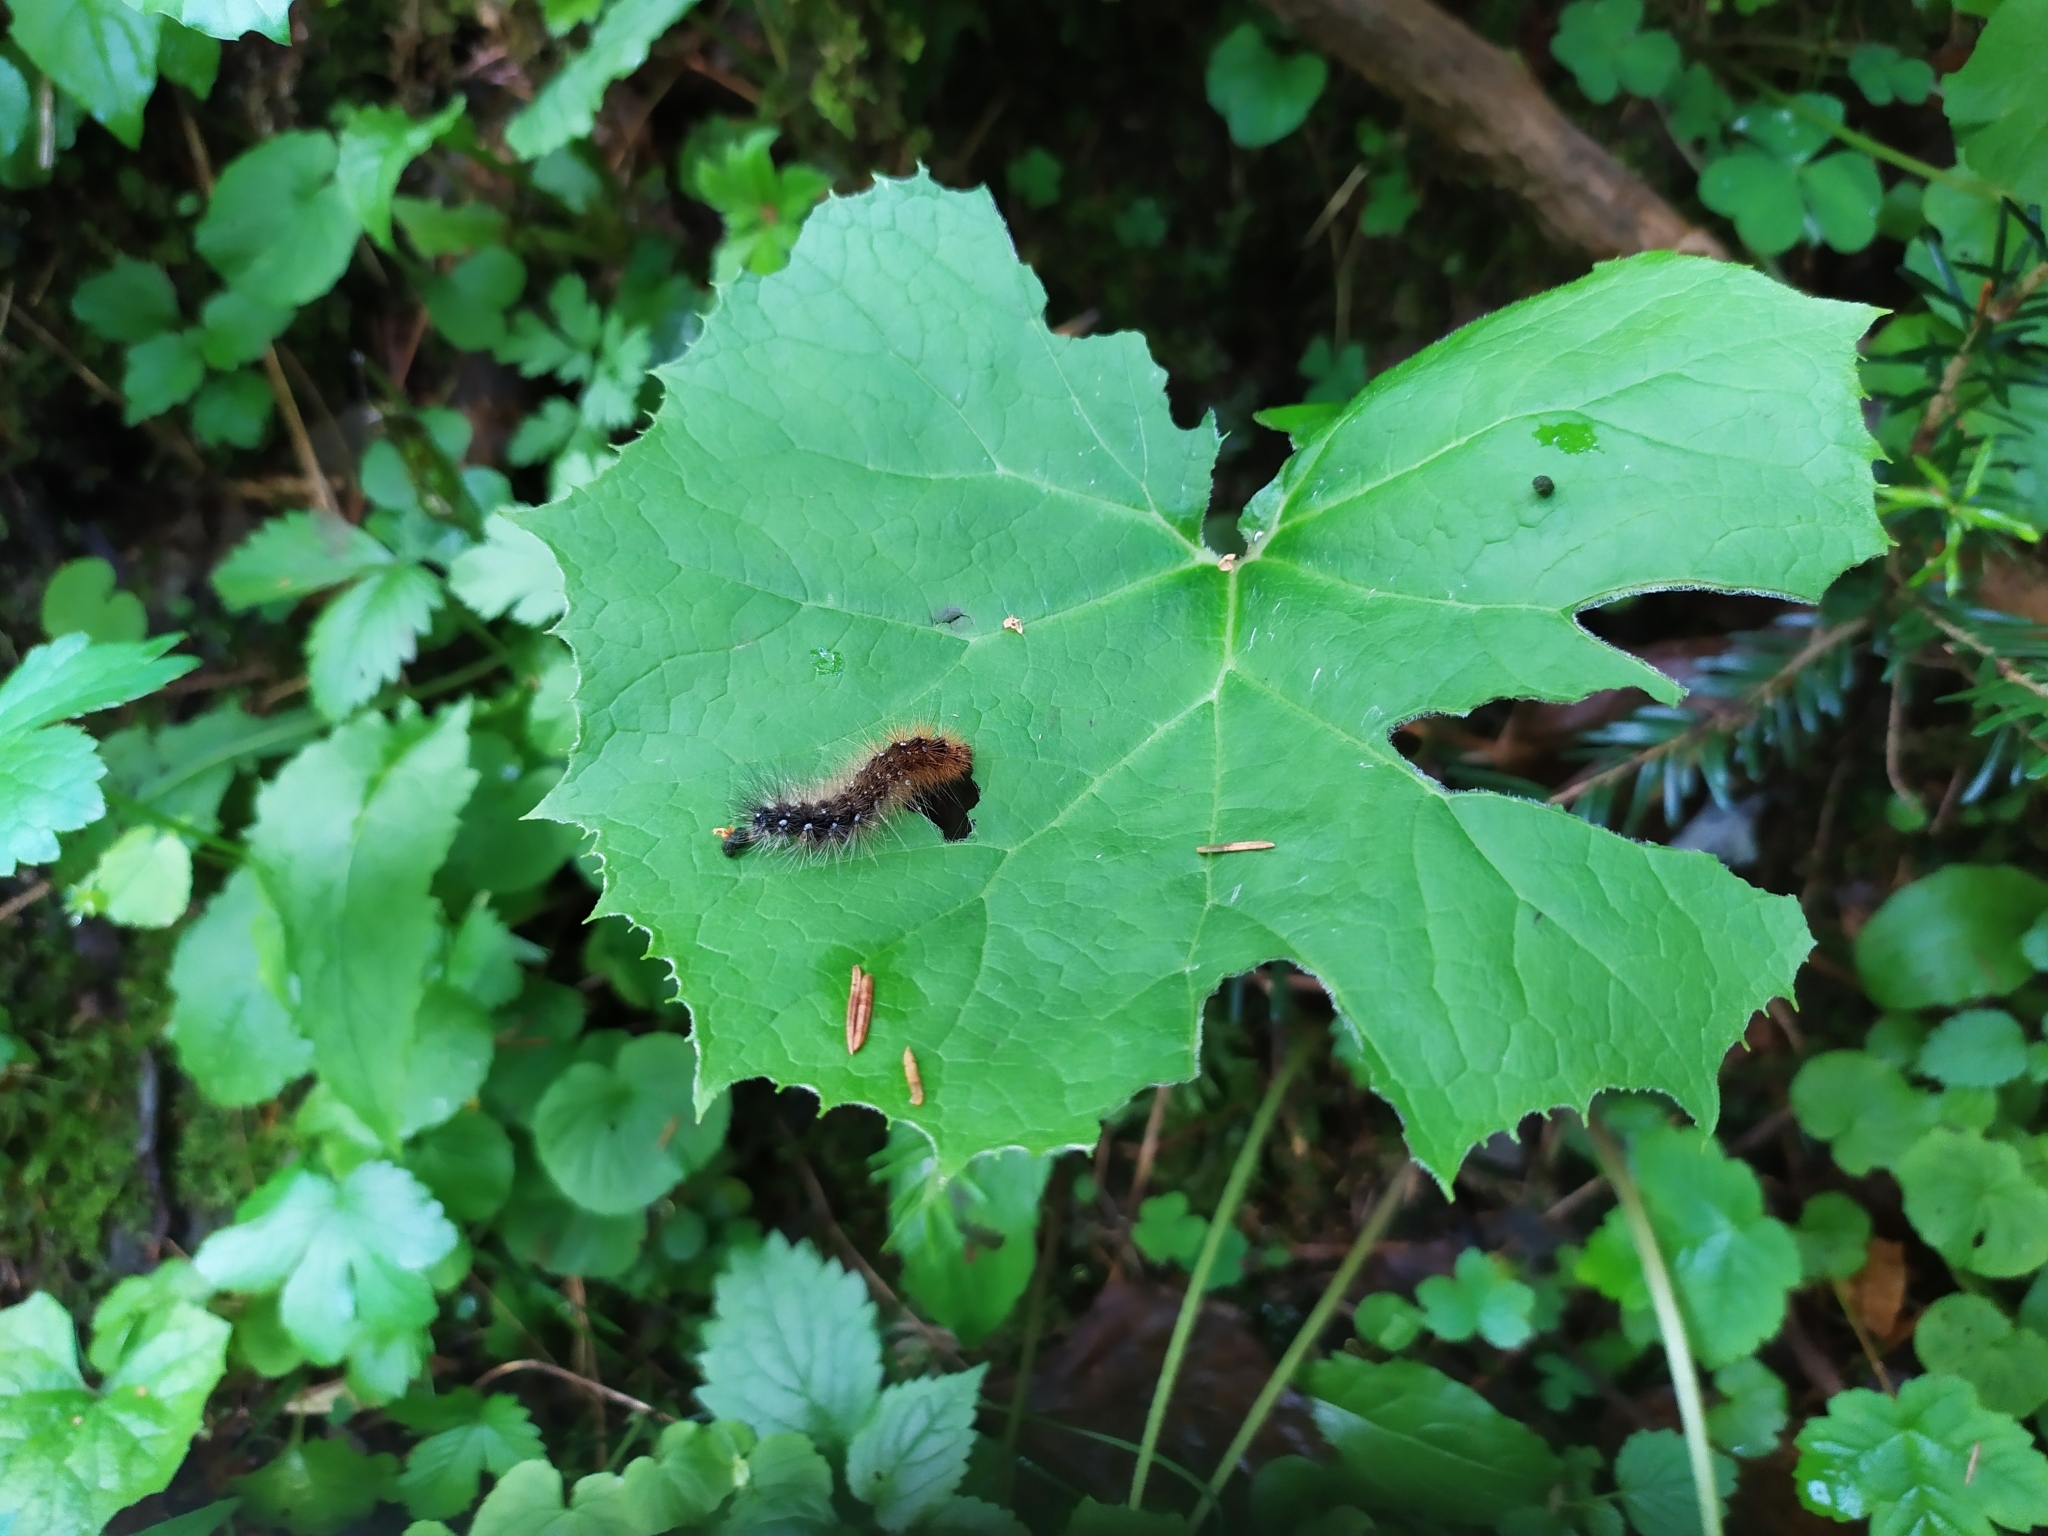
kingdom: Animalia
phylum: Arthropoda
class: Insecta
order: Lepidoptera
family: Erebidae
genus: Arctia
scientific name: Arctia caja
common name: Garden tiger
